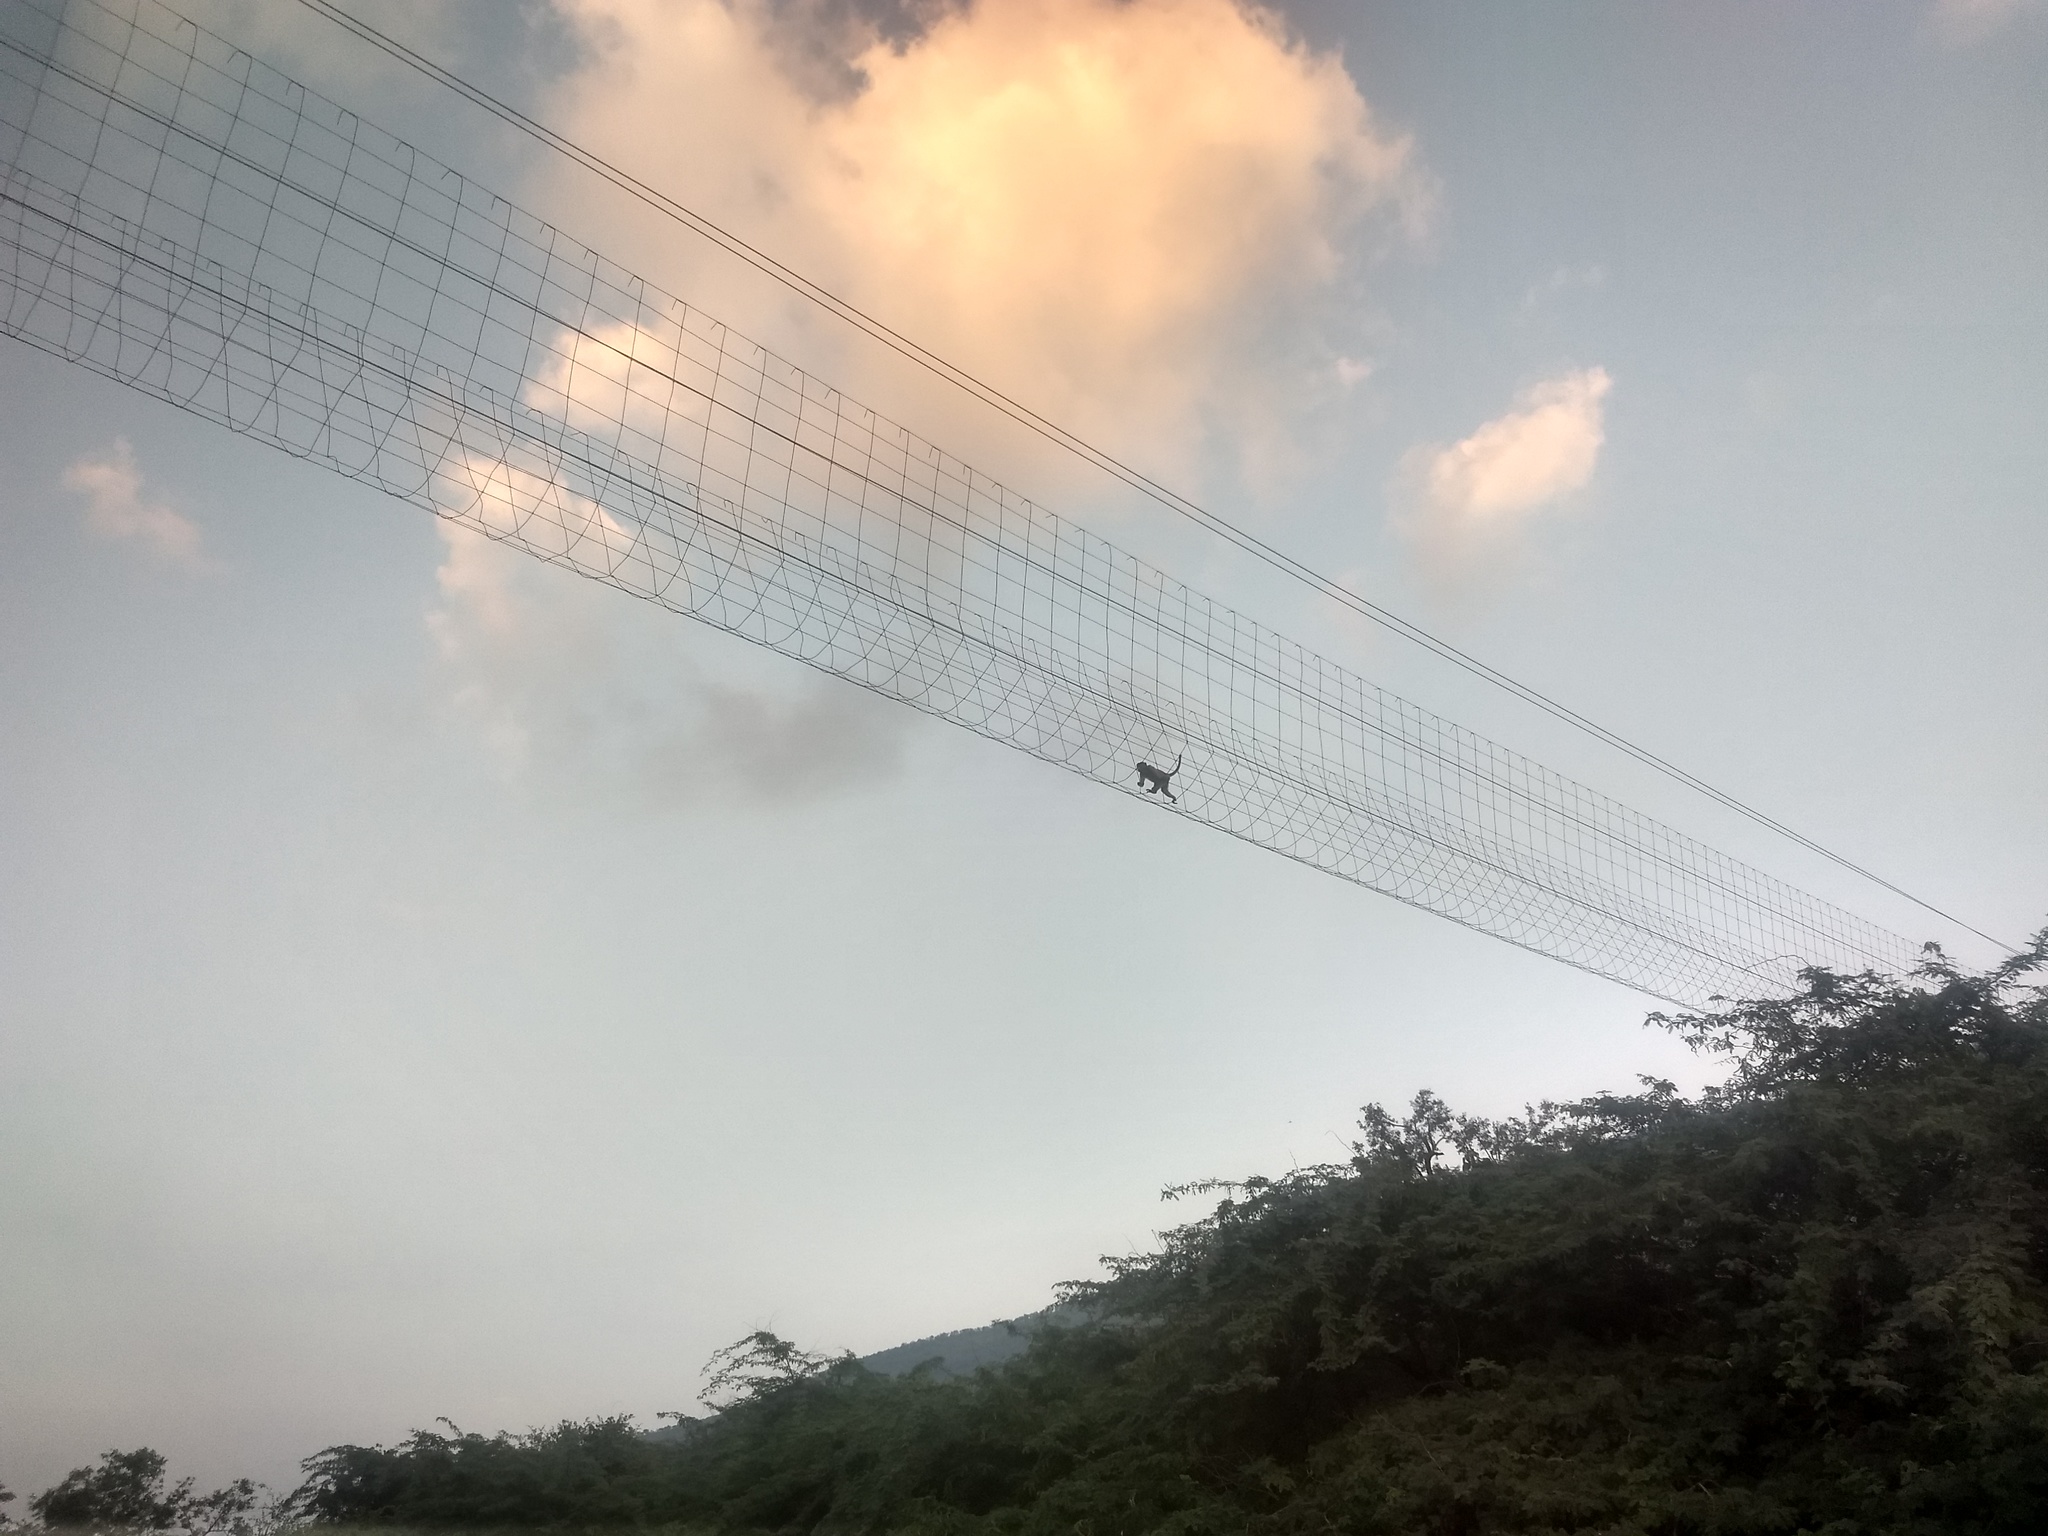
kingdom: Animalia
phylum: Chordata
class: Mammalia
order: Primates
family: Cercopithecidae
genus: Macaca
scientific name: Macaca radiata
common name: Bonnet macaque
